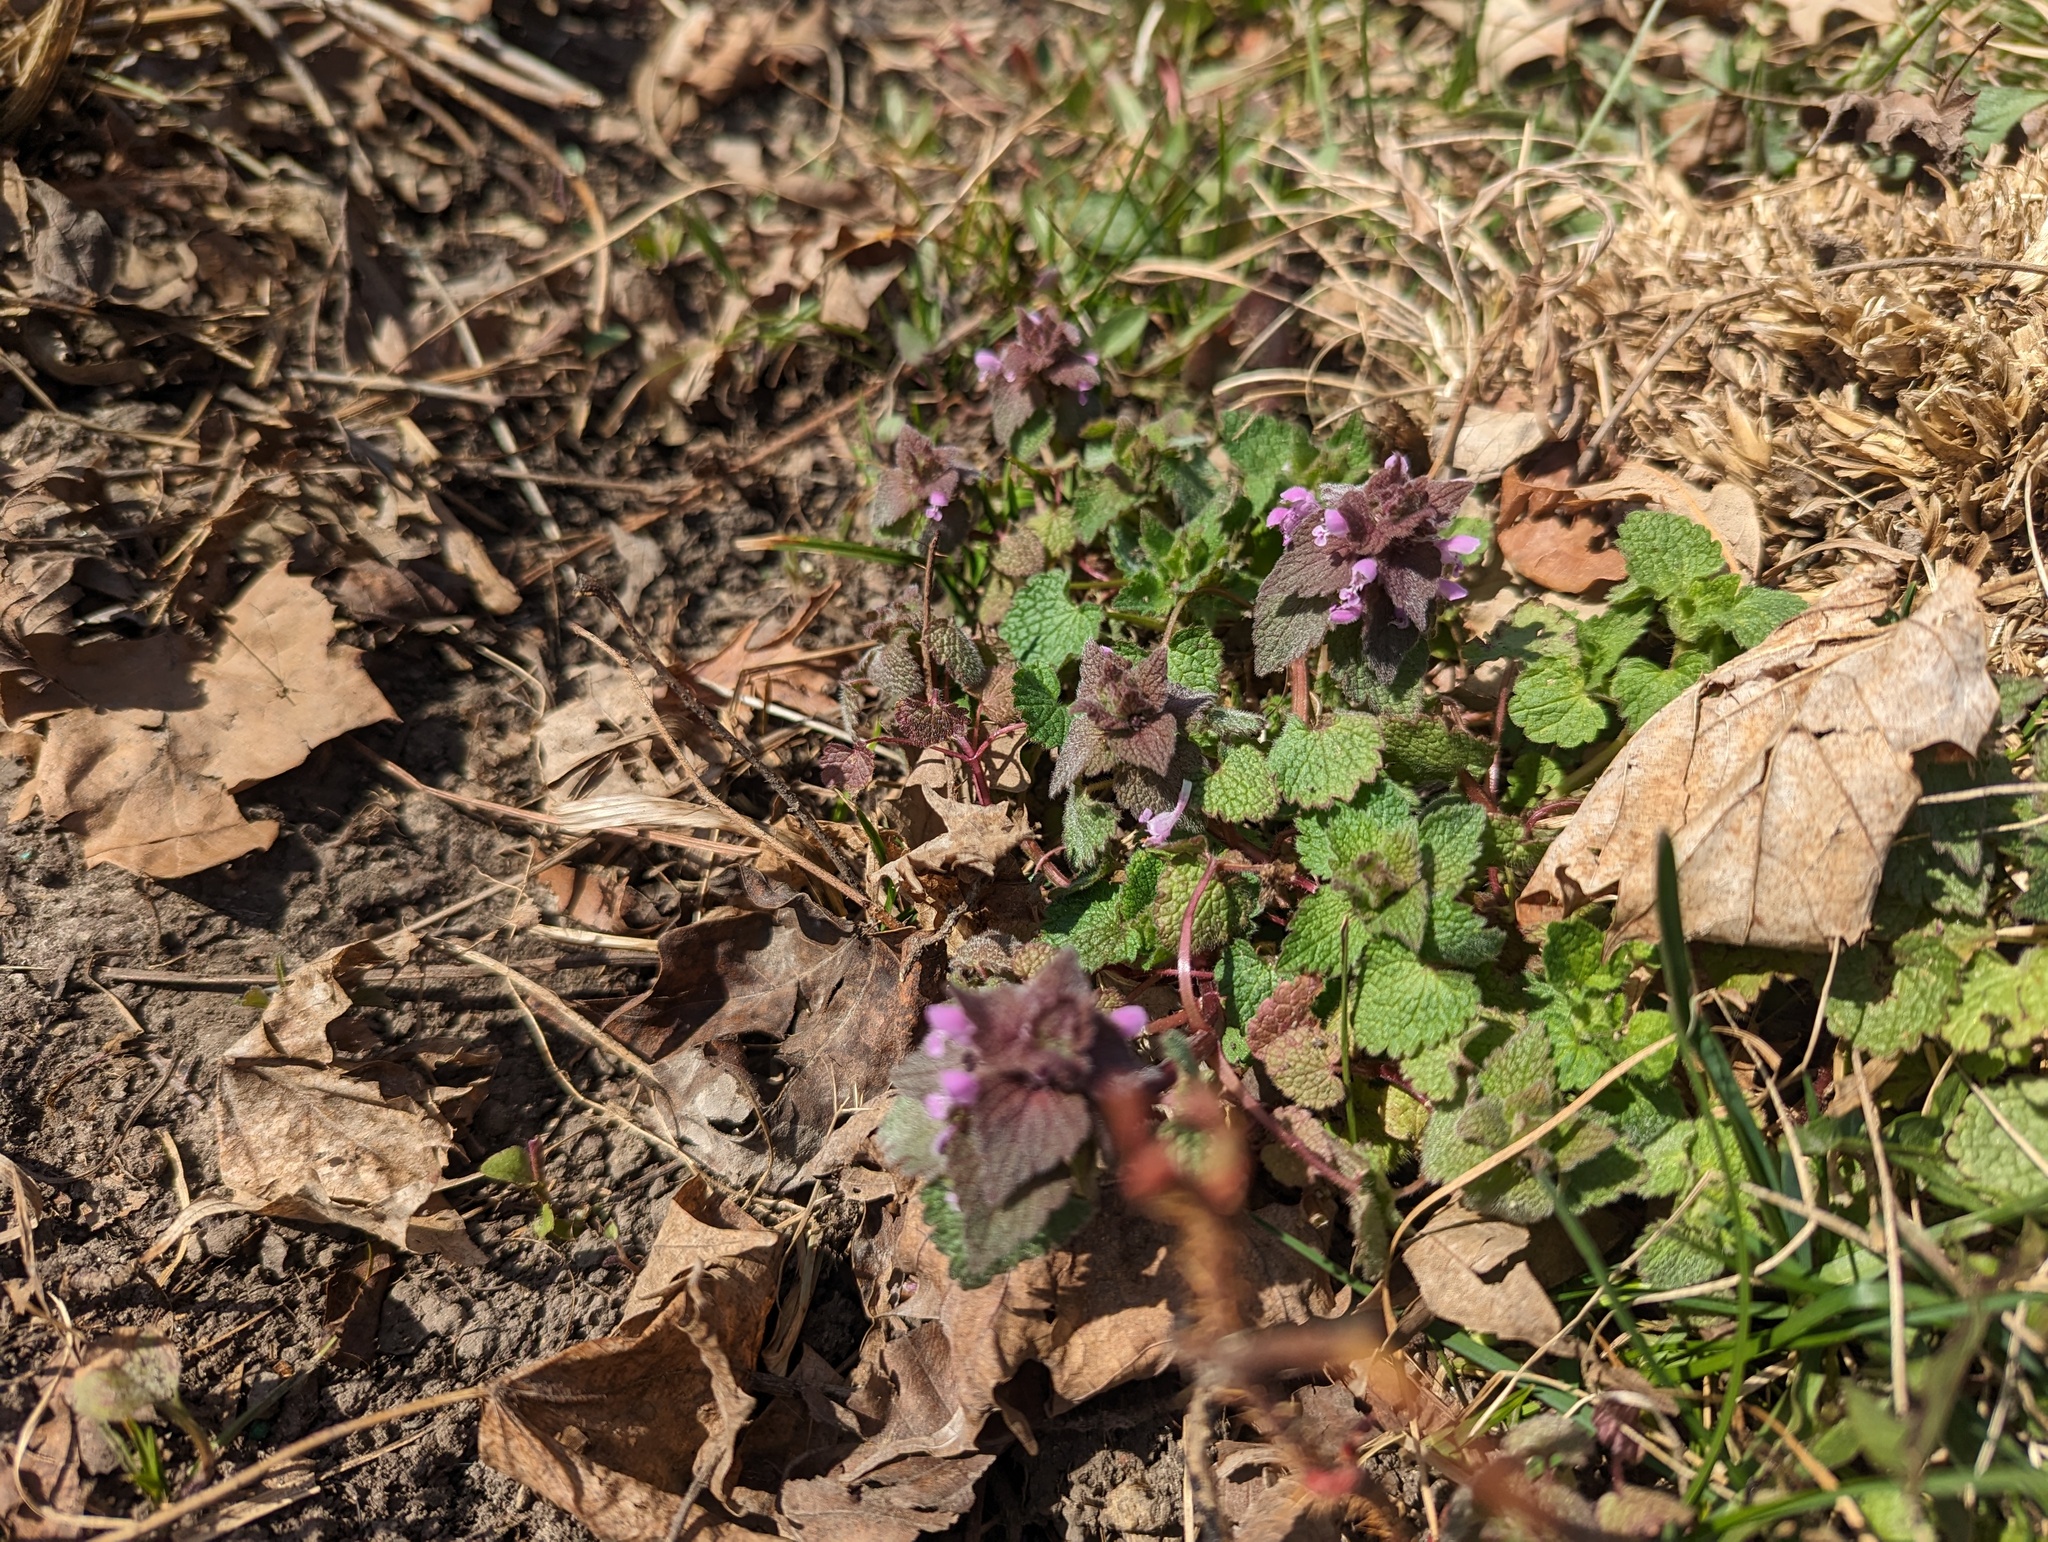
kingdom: Plantae
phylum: Tracheophyta
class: Magnoliopsida
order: Lamiales
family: Lamiaceae
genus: Lamium
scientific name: Lamium purpureum
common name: Red dead-nettle
